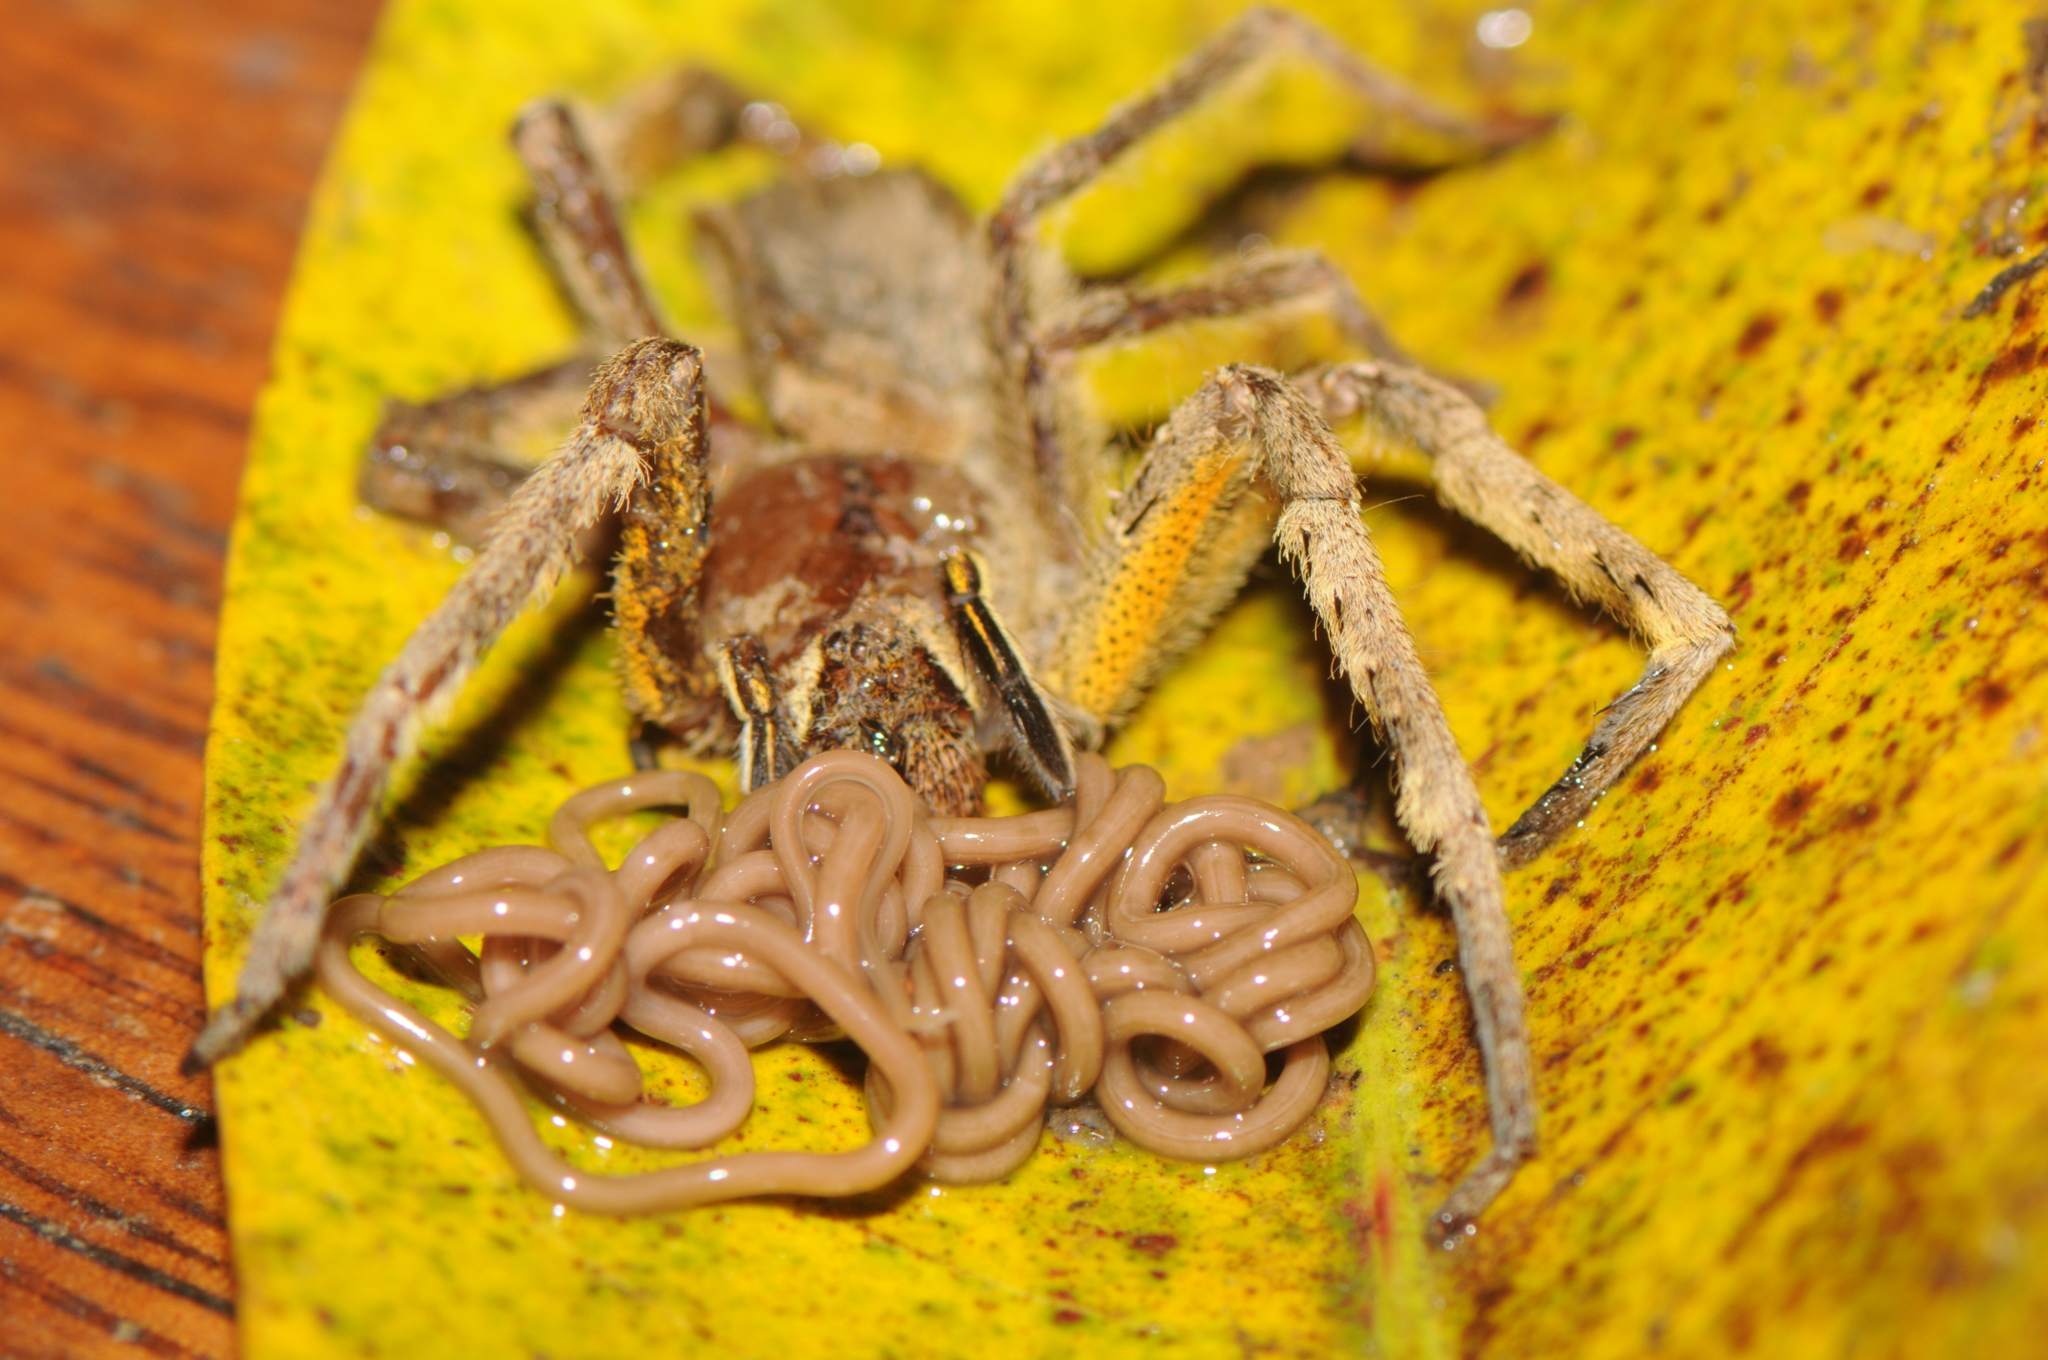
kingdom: Animalia
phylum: Arthropoda
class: Arachnida
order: Araneae
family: Ctenidae
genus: Phoneutria
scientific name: Phoneutria boliviensis
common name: Wandering spiders
